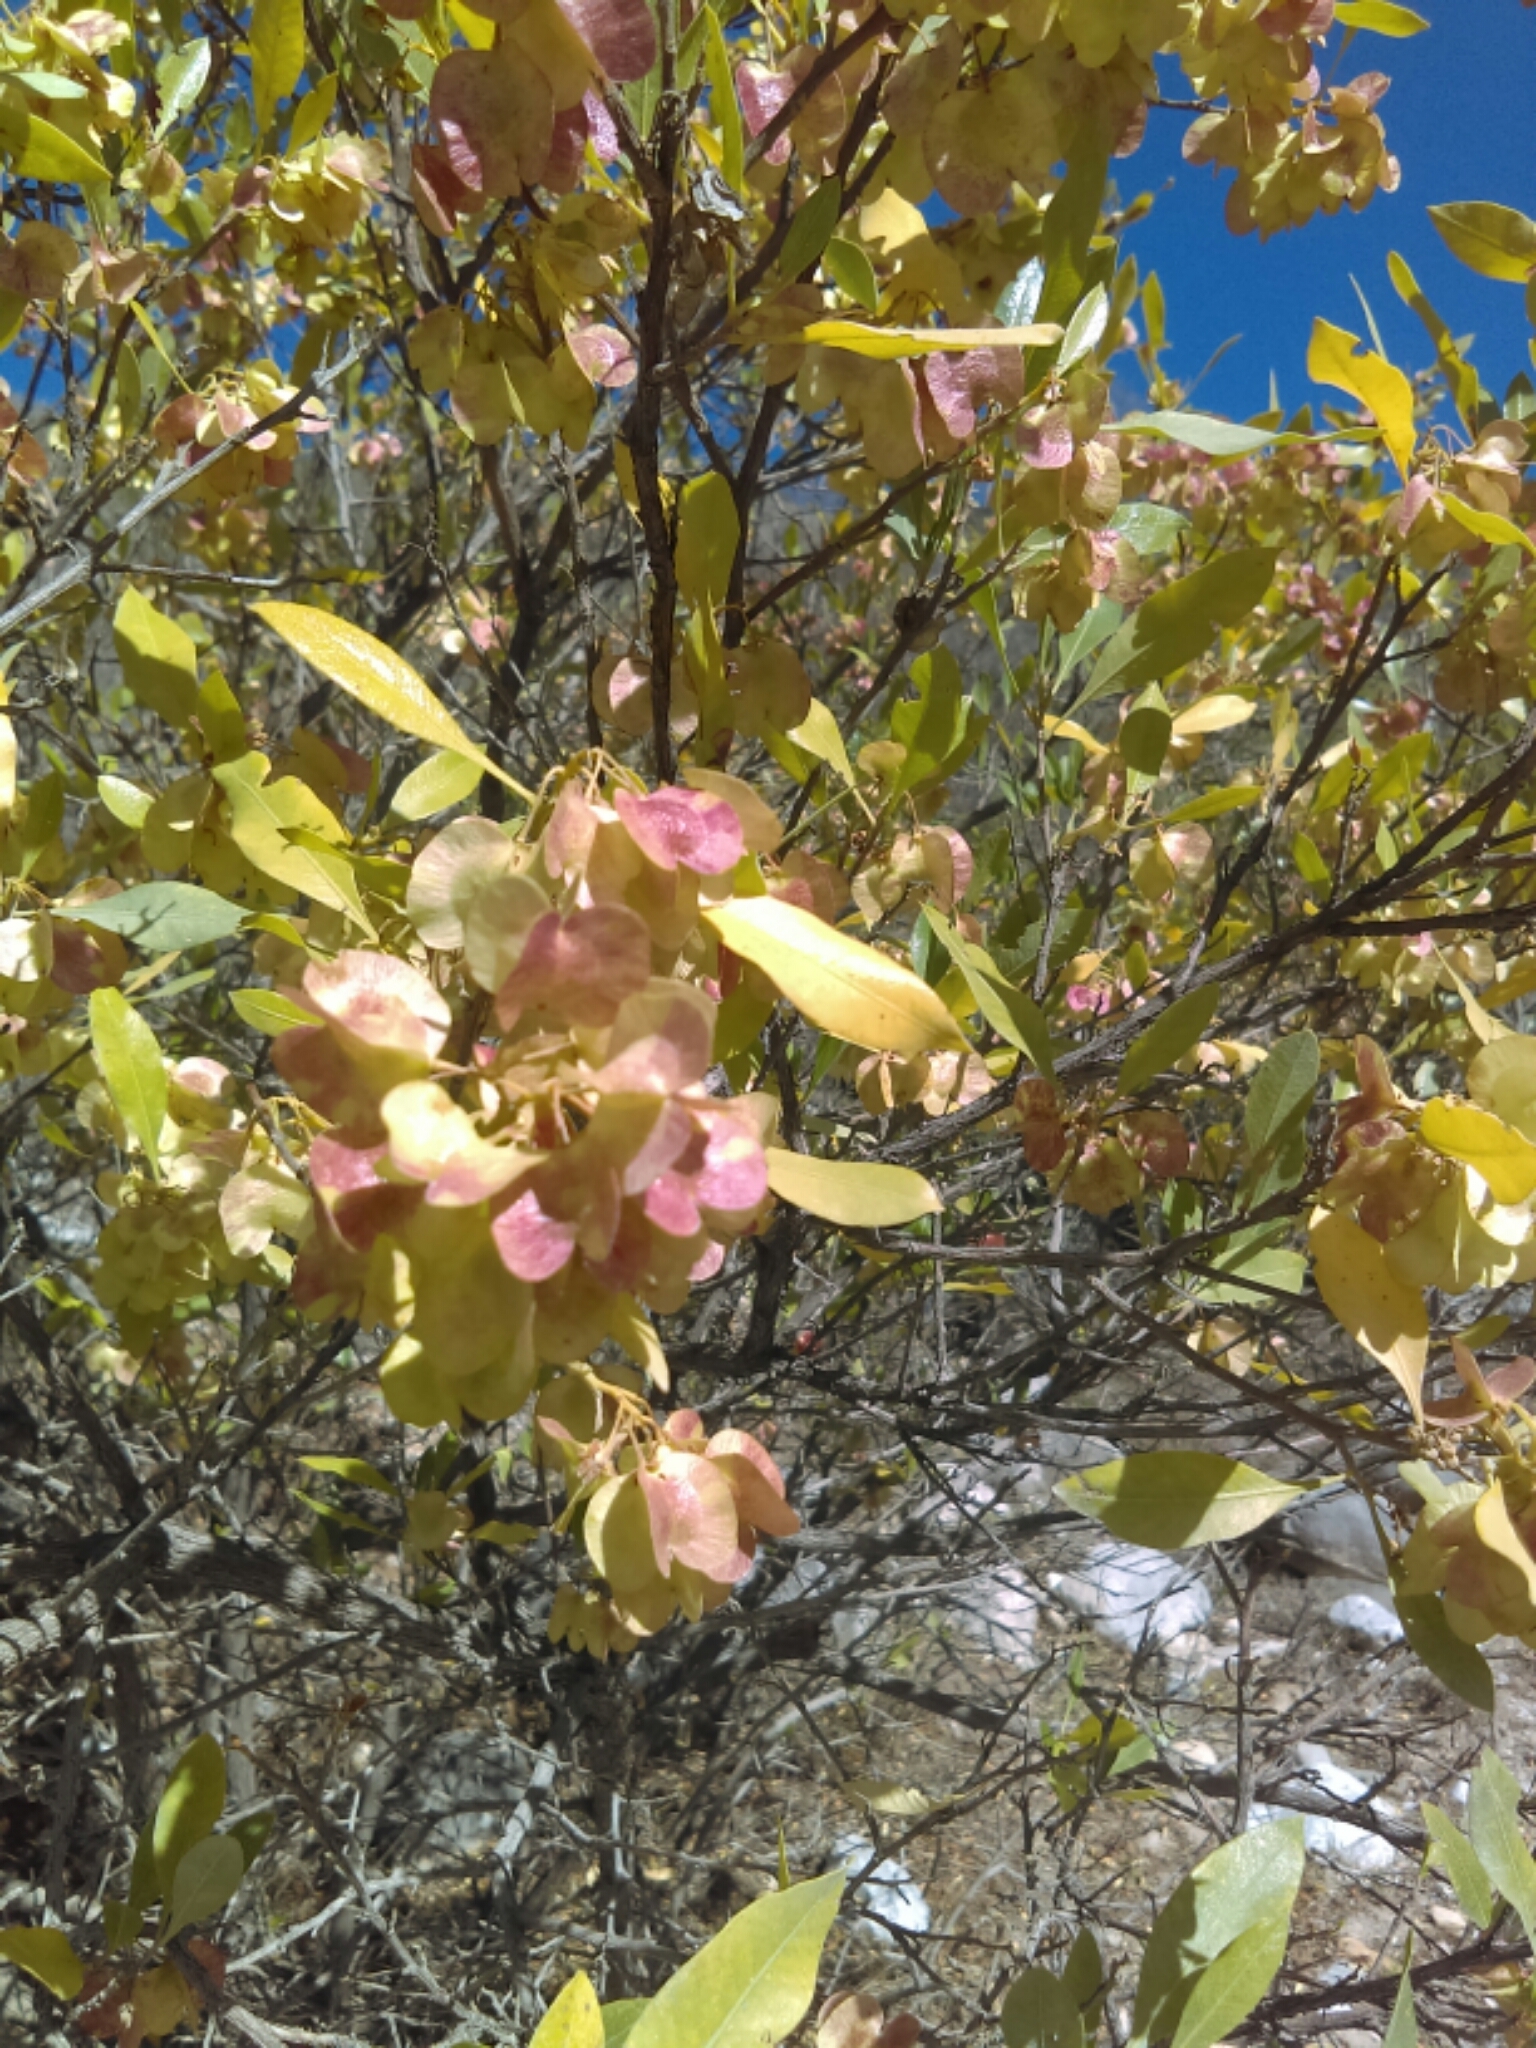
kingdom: Plantae
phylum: Tracheophyta
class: Magnoliopsida
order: Sapindales
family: Sapindaceae
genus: Dodonaea
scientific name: Dodonaea viscosa
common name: Hopbush
